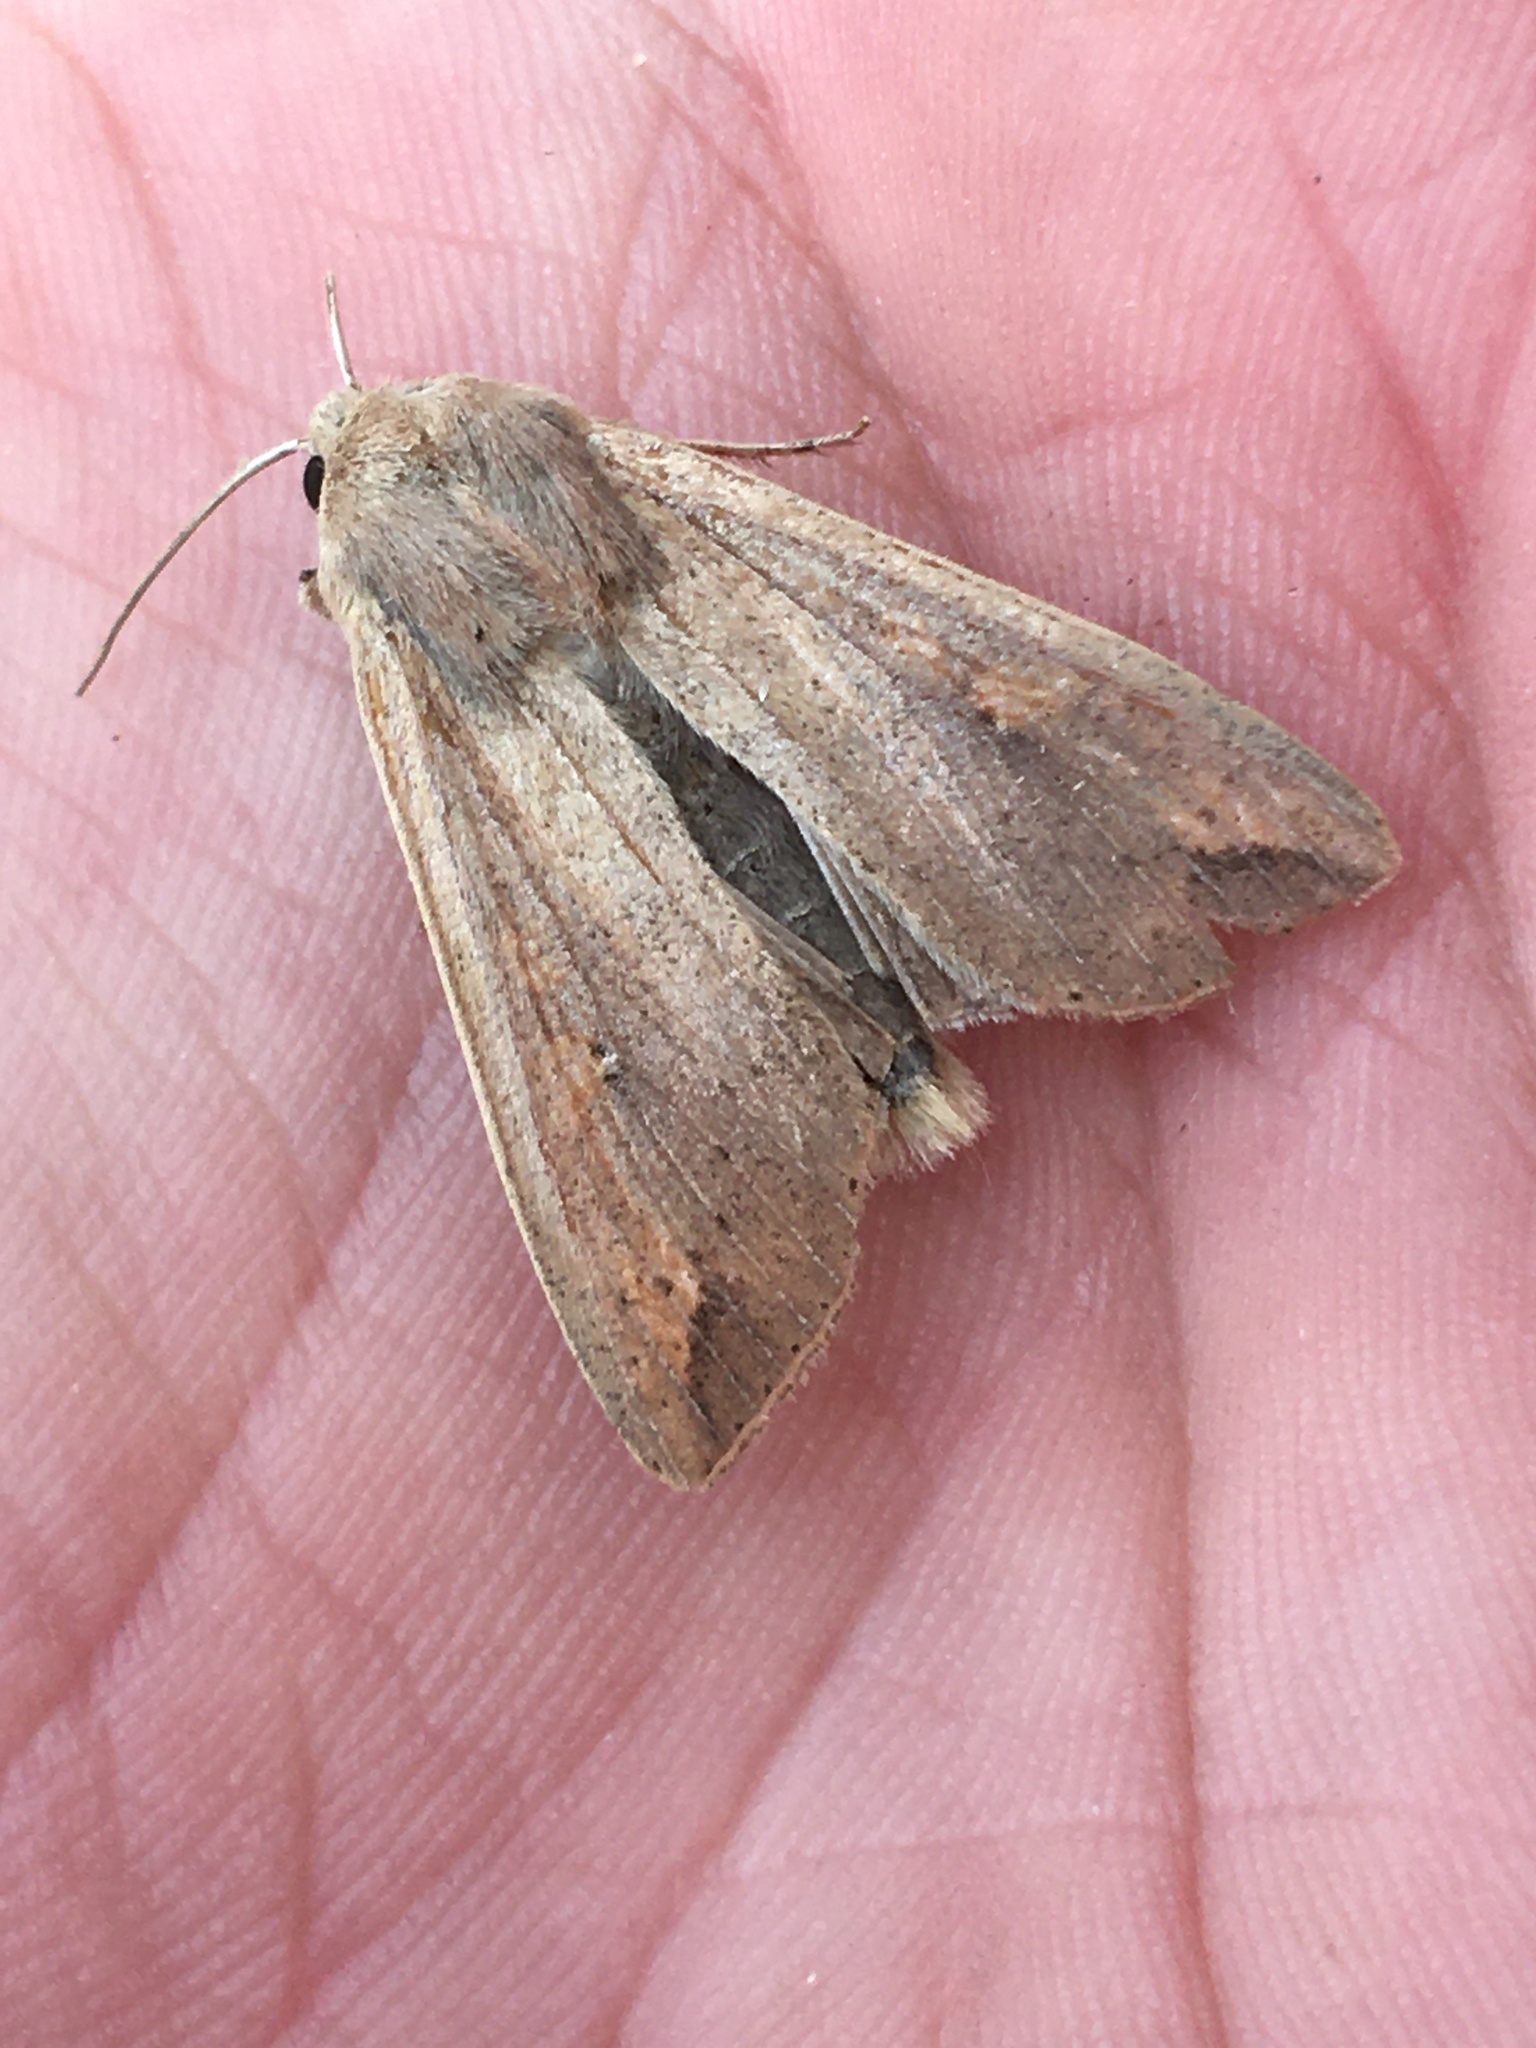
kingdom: Animalia
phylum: Arthropoda
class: Insecta
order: Lepidoptera
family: Noctuidae
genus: Mythimna
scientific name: Mythimna unipuncta
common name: White-speck
